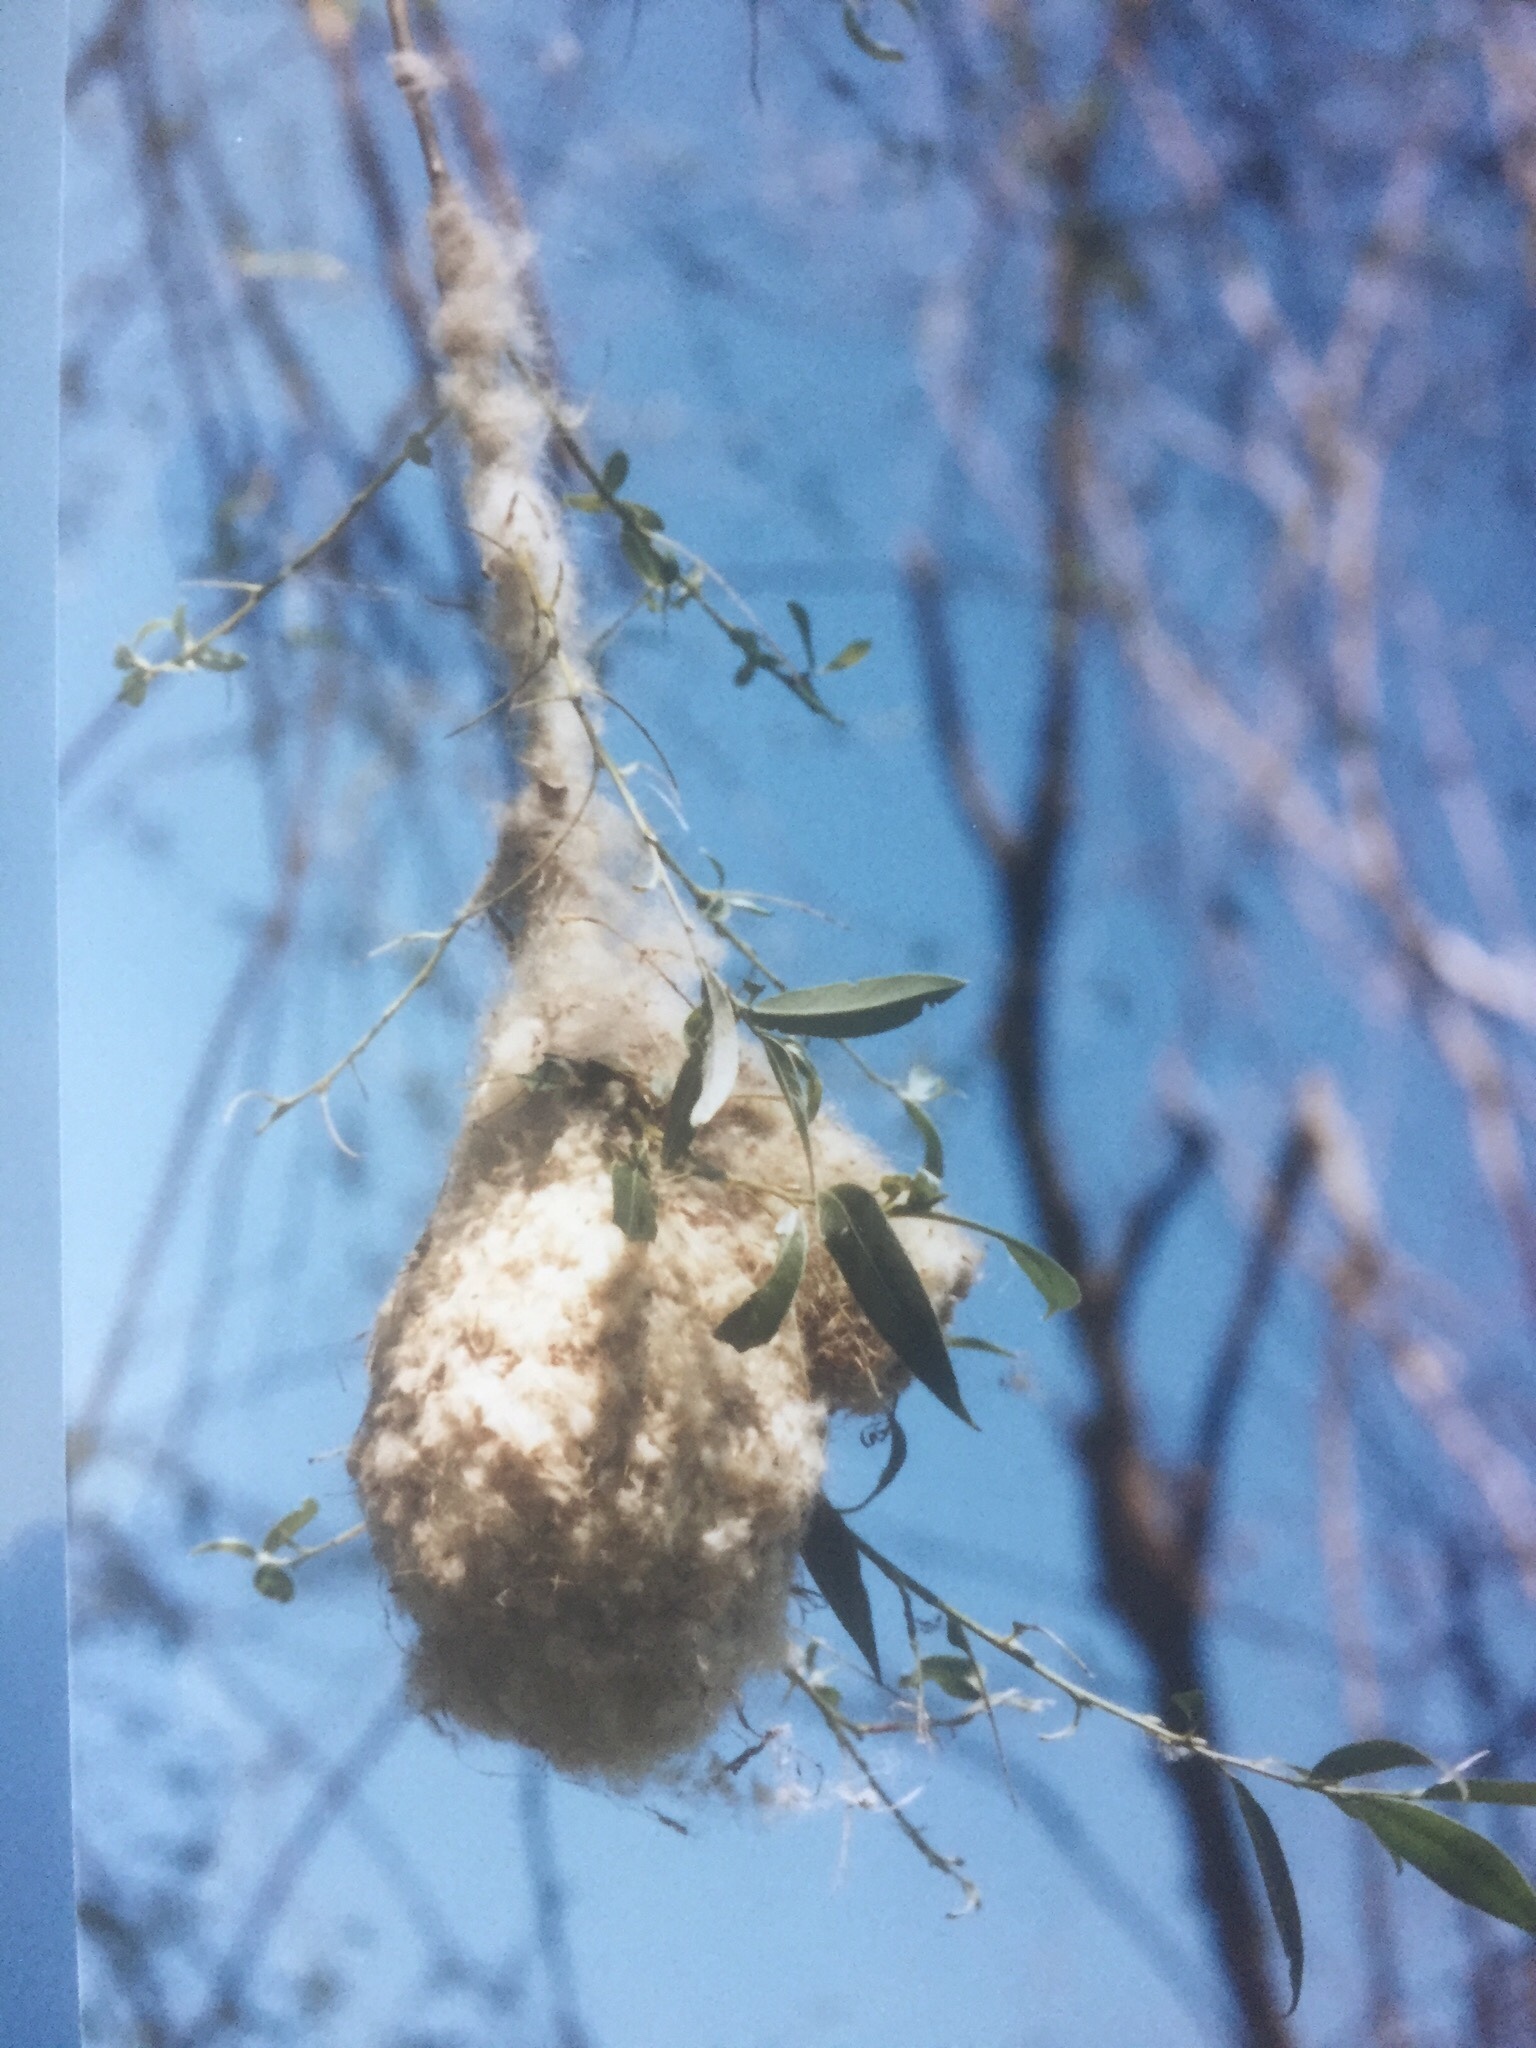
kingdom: Animalia
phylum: Chordata
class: Aves
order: Passeriformes
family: Remizidae
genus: Remiz
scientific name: Remiz pendulinus
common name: Eurasian penduline tit
